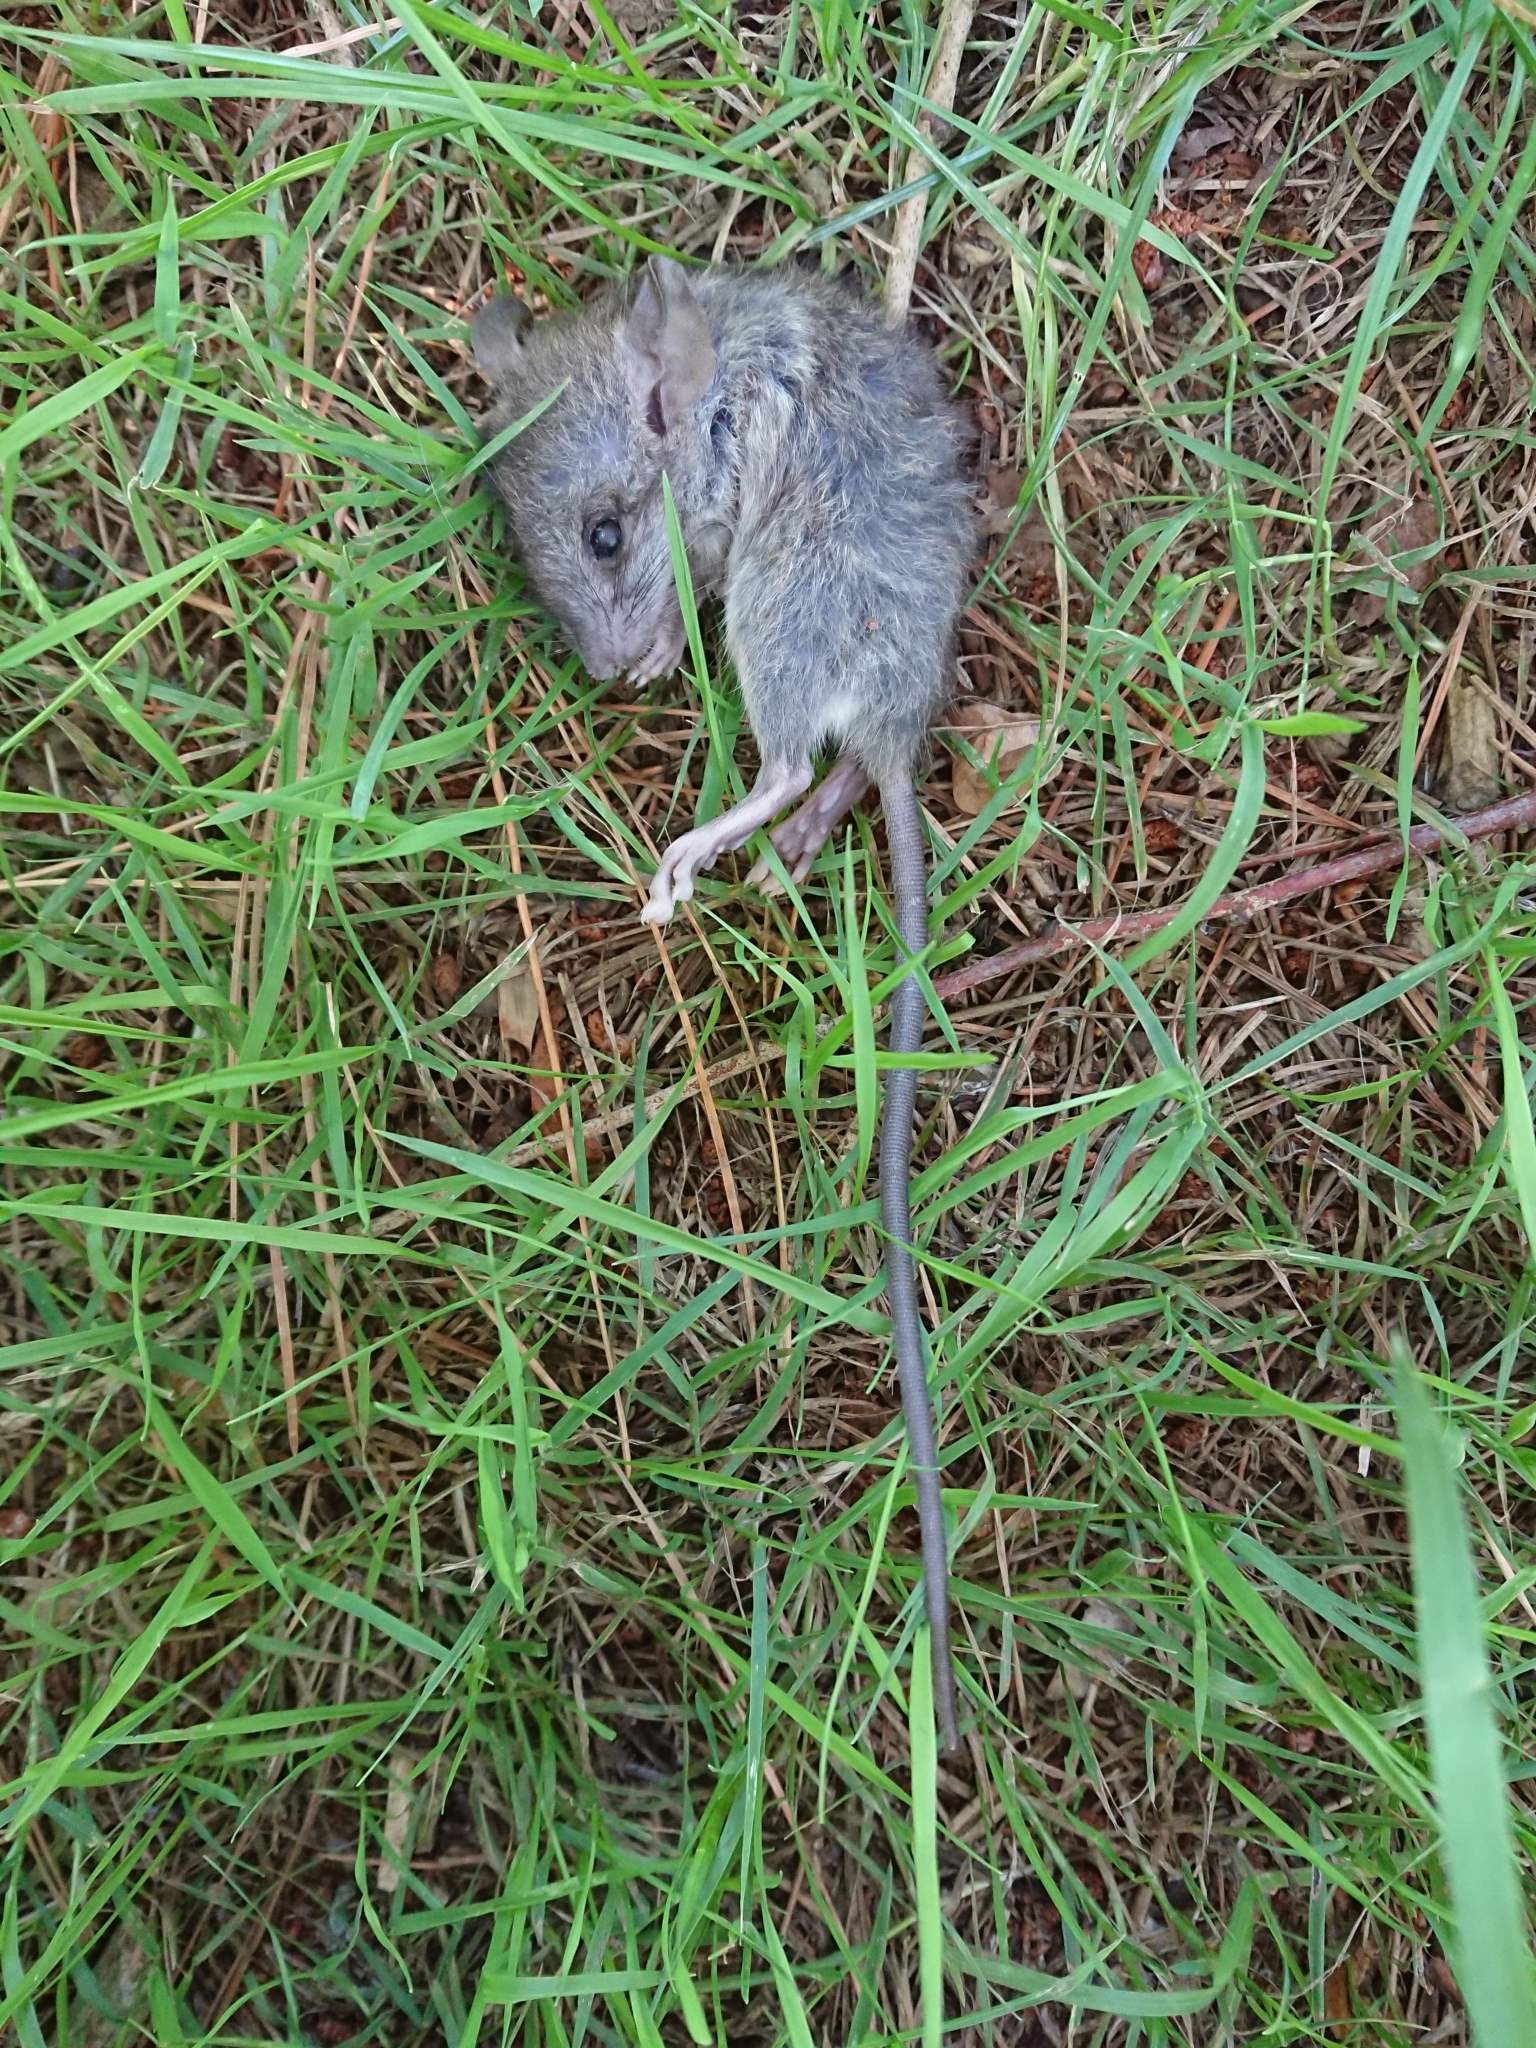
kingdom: Animalia
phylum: Chordata
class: Mammalia
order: Rodentia
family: Muridae
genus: Rattus
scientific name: Rattus rattus
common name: Black rat
